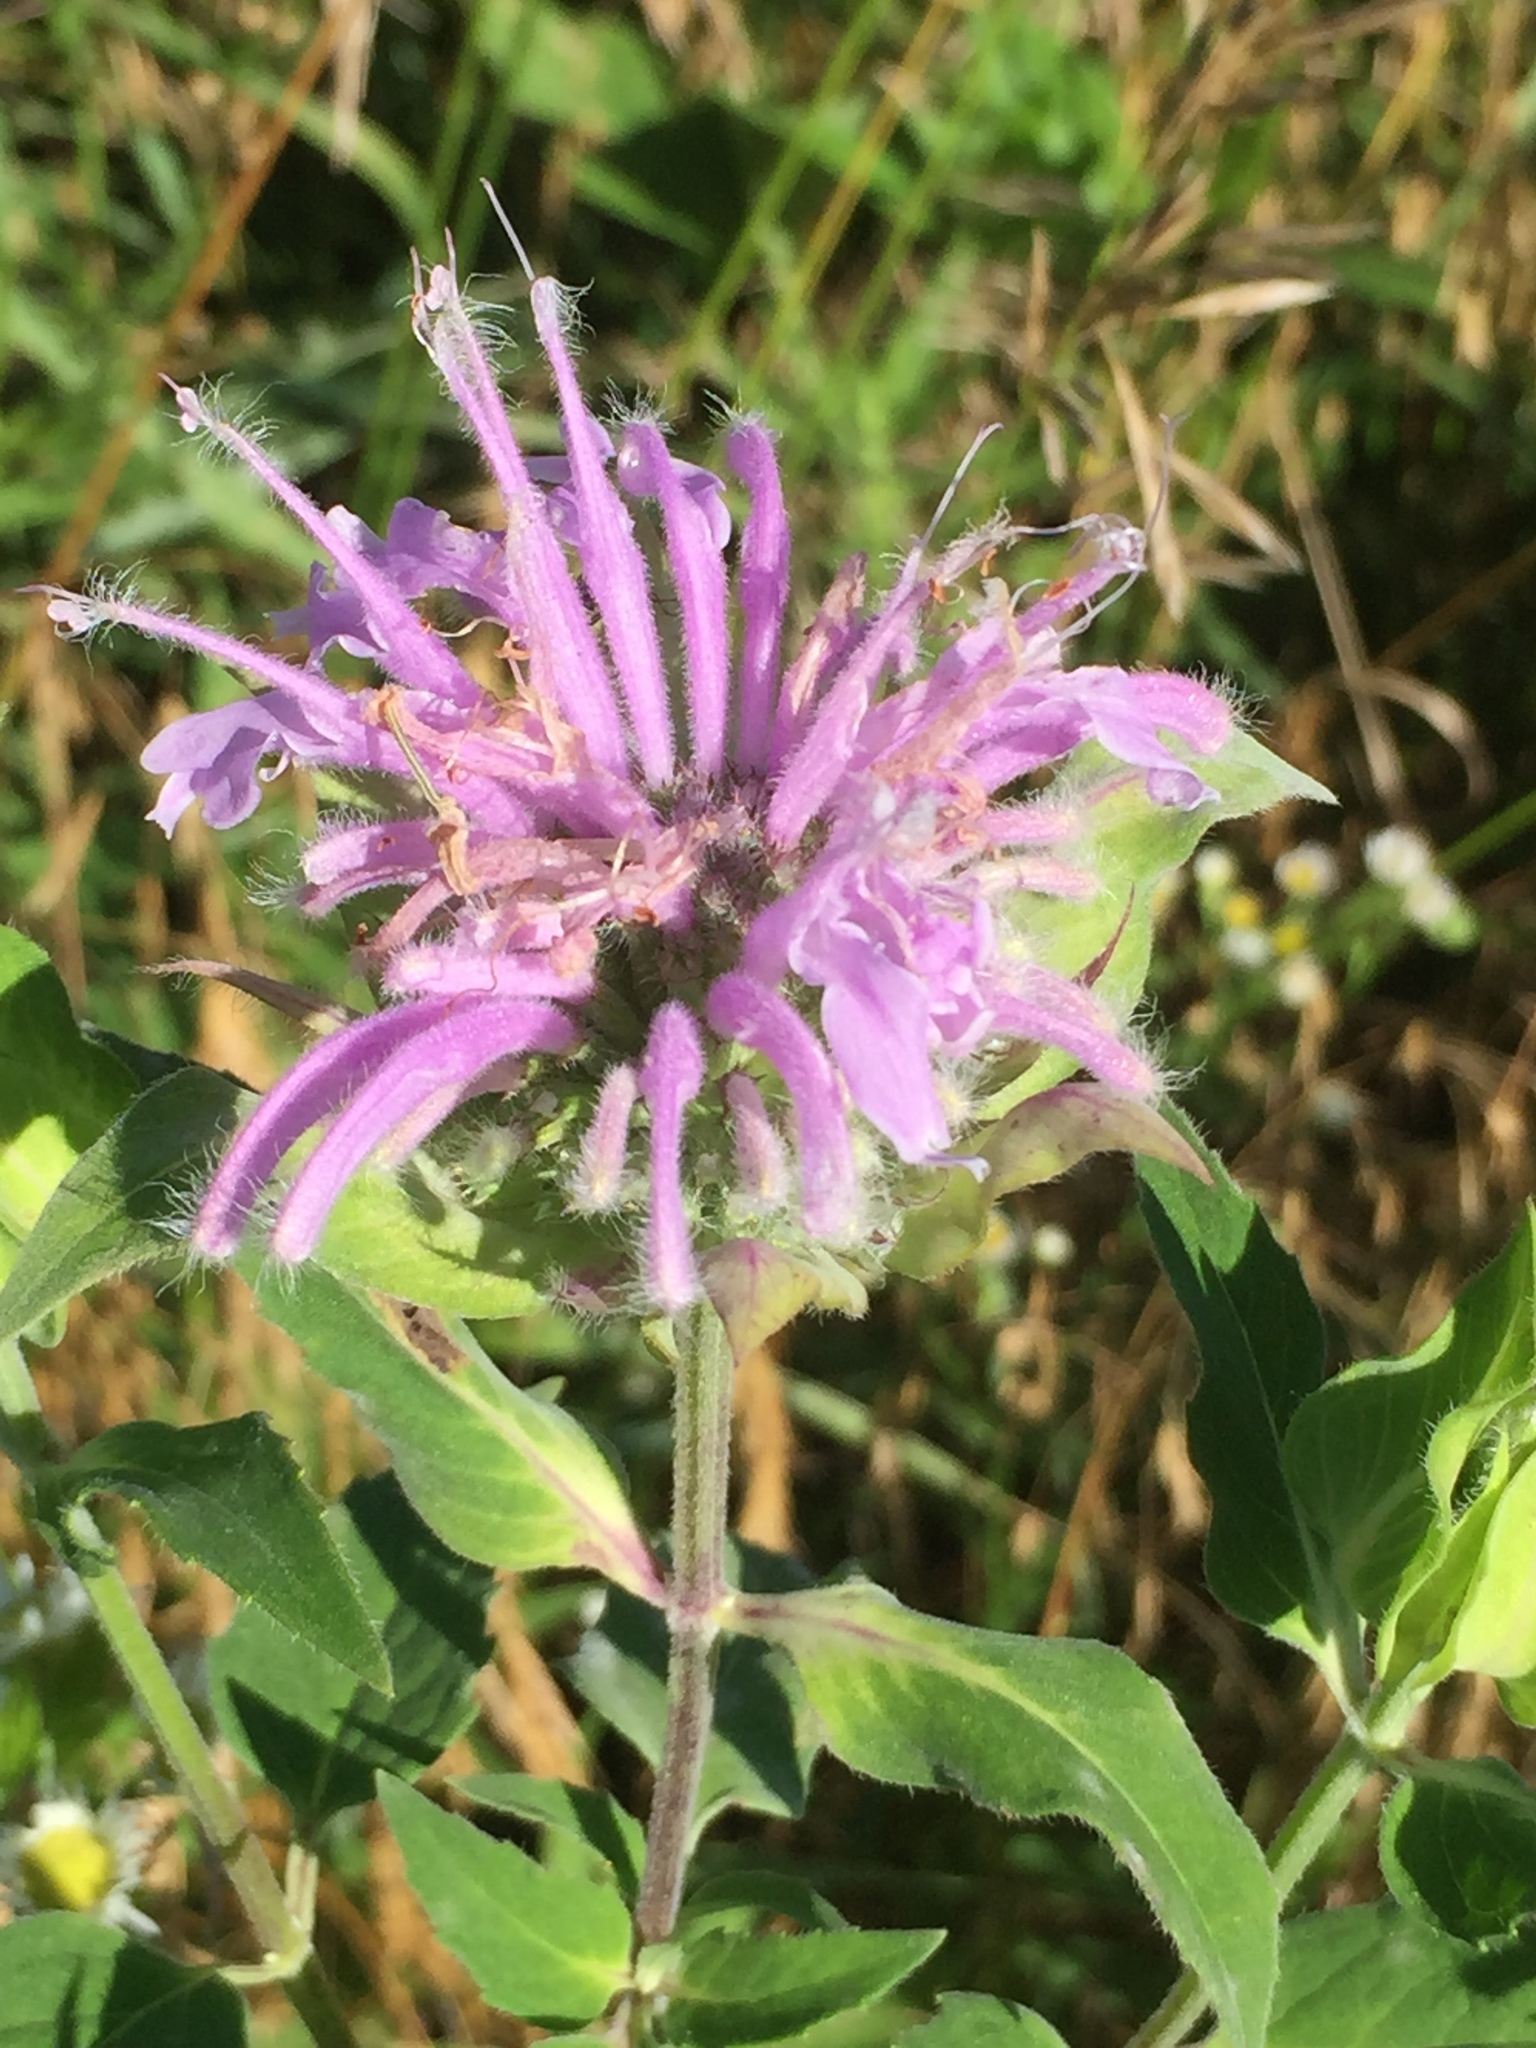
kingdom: Plantae
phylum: Tracheophyta
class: Magnoliopsida
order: Lamiales
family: Lamiaceae
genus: Monarda
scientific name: Monarda fistulosa
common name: Purple beebalm
